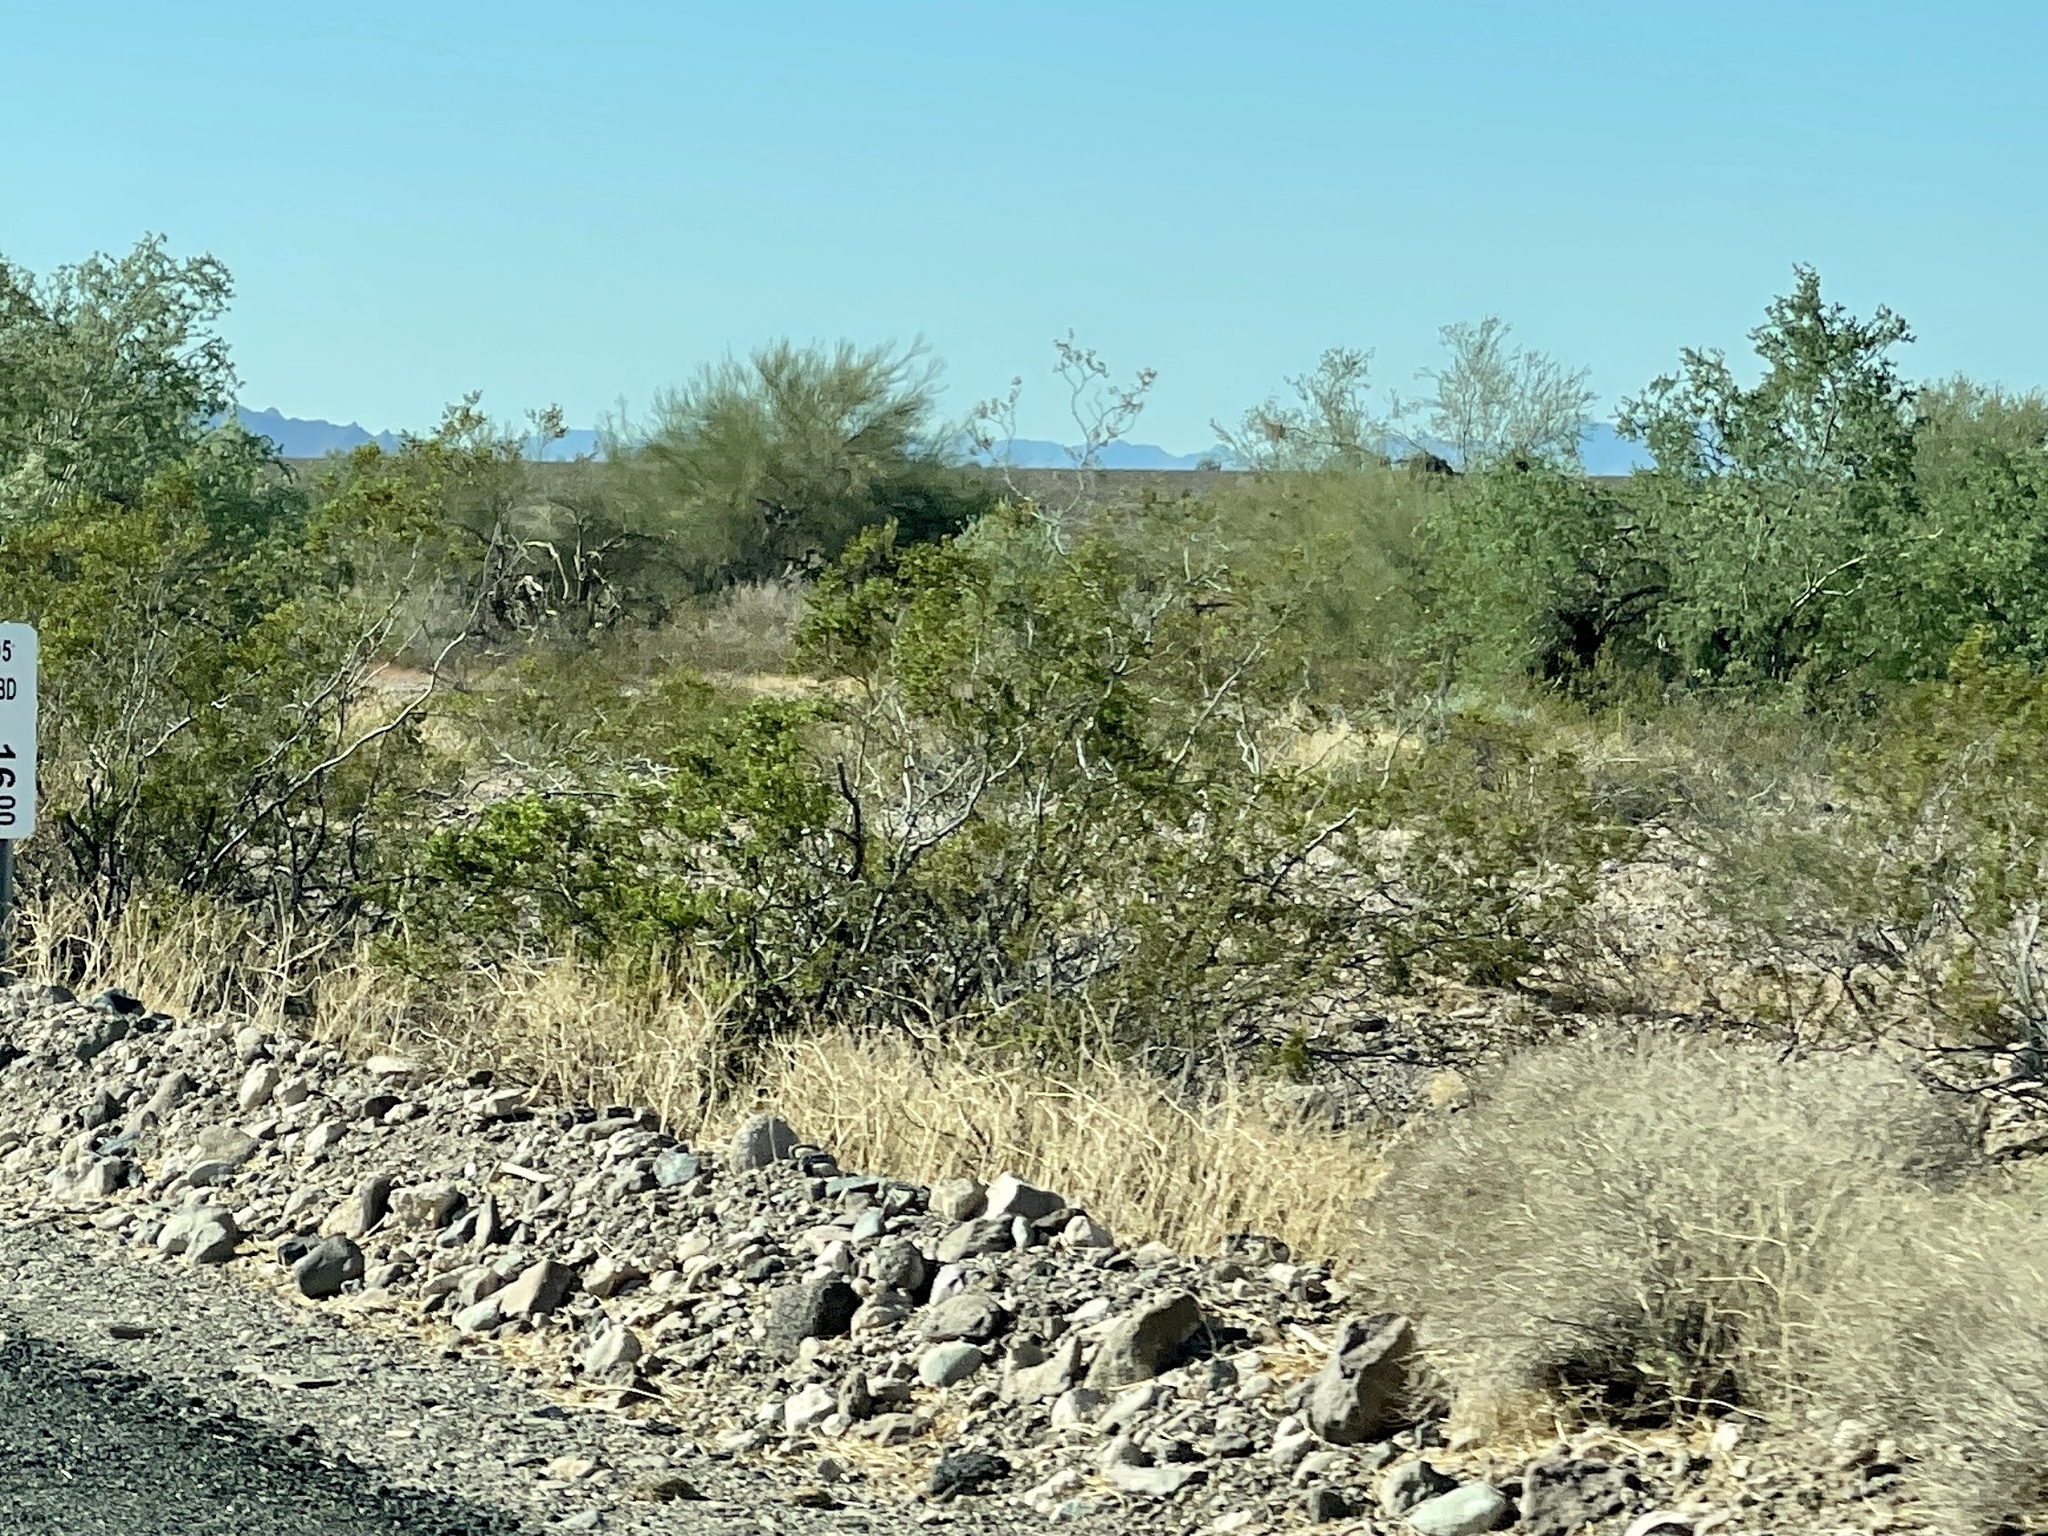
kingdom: Plantae
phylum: Tracheophyta
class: Magnoliopsida
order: Zygophyllales
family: Zygophyllaceae
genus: Larrea
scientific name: Larrea tridentata
